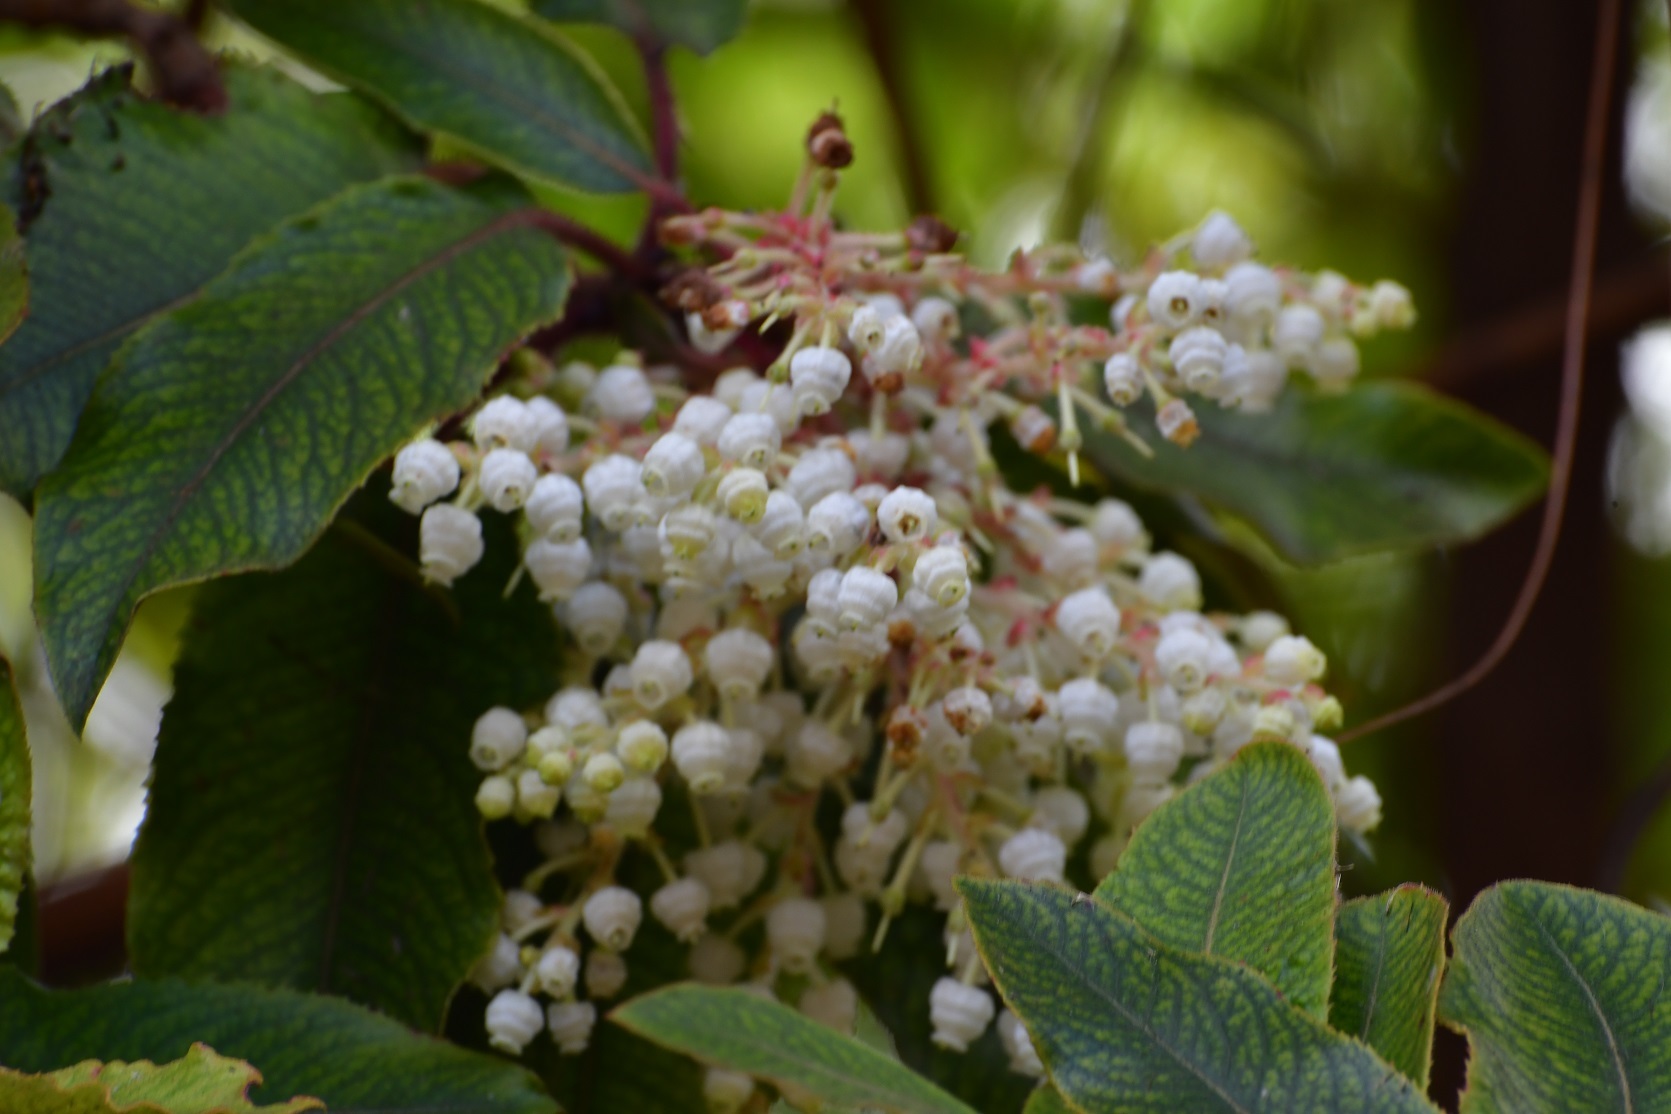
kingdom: Plantae
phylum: Tracheophyta
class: Magnoliopsida
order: Ericales
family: Ericaceae
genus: Arbutus
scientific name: Arbutus xalapensis
